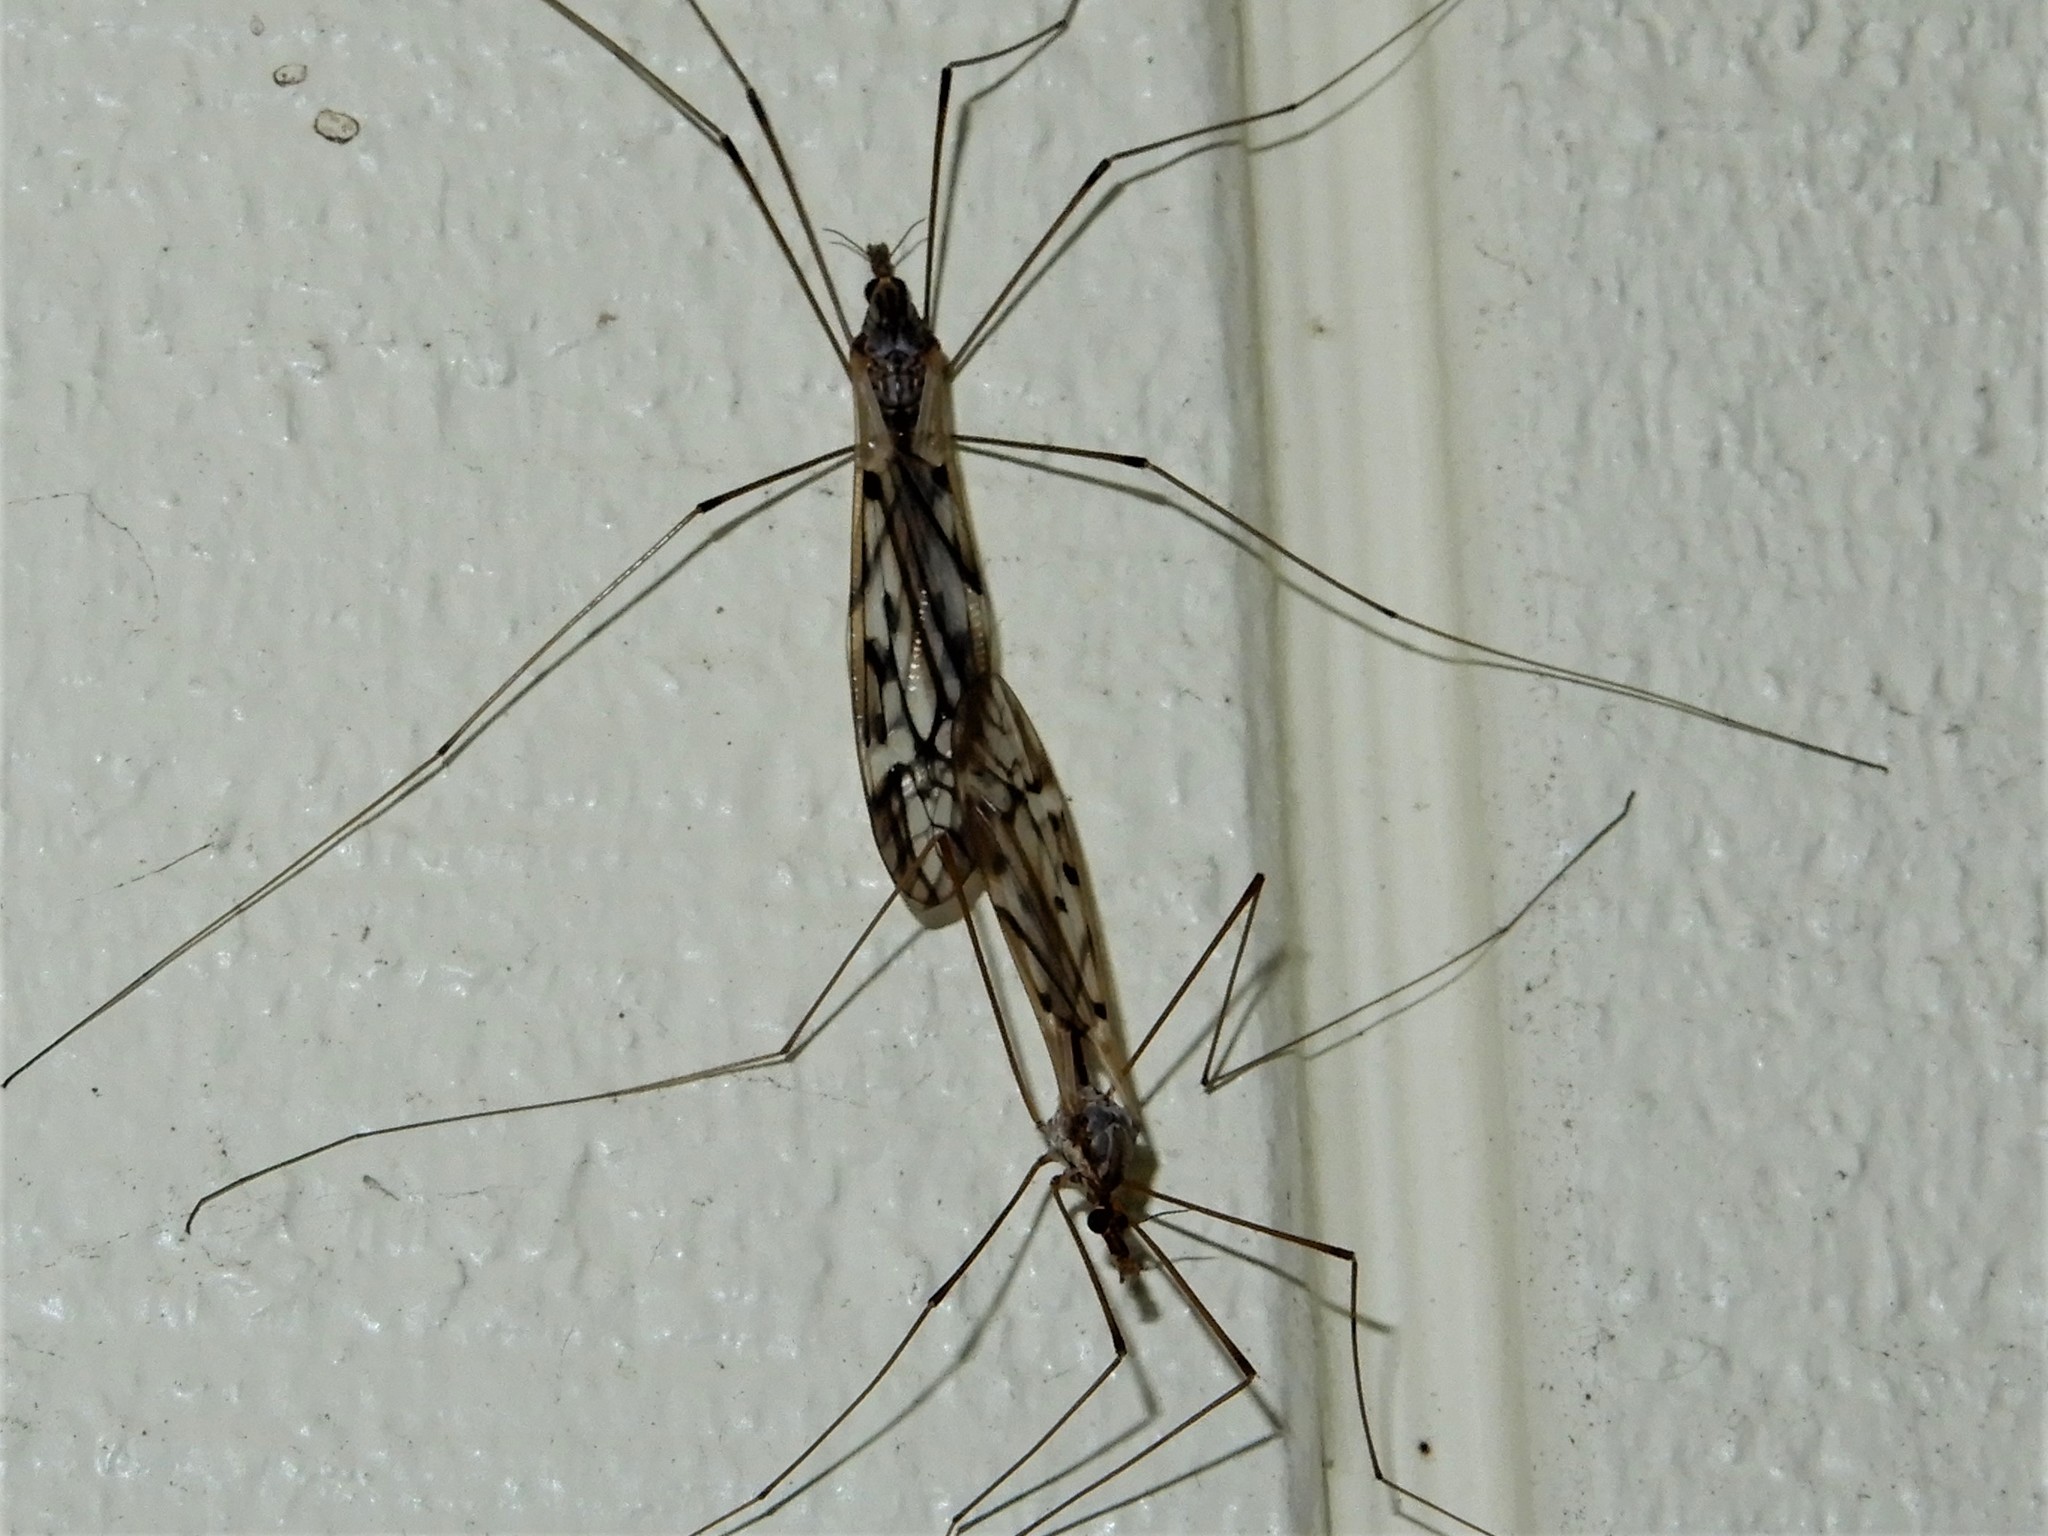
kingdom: Animalia
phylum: Arthropoda
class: Insecta
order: Diptera
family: Tipulidae
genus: Zelandotipula
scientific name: Zelandotipula novarae
